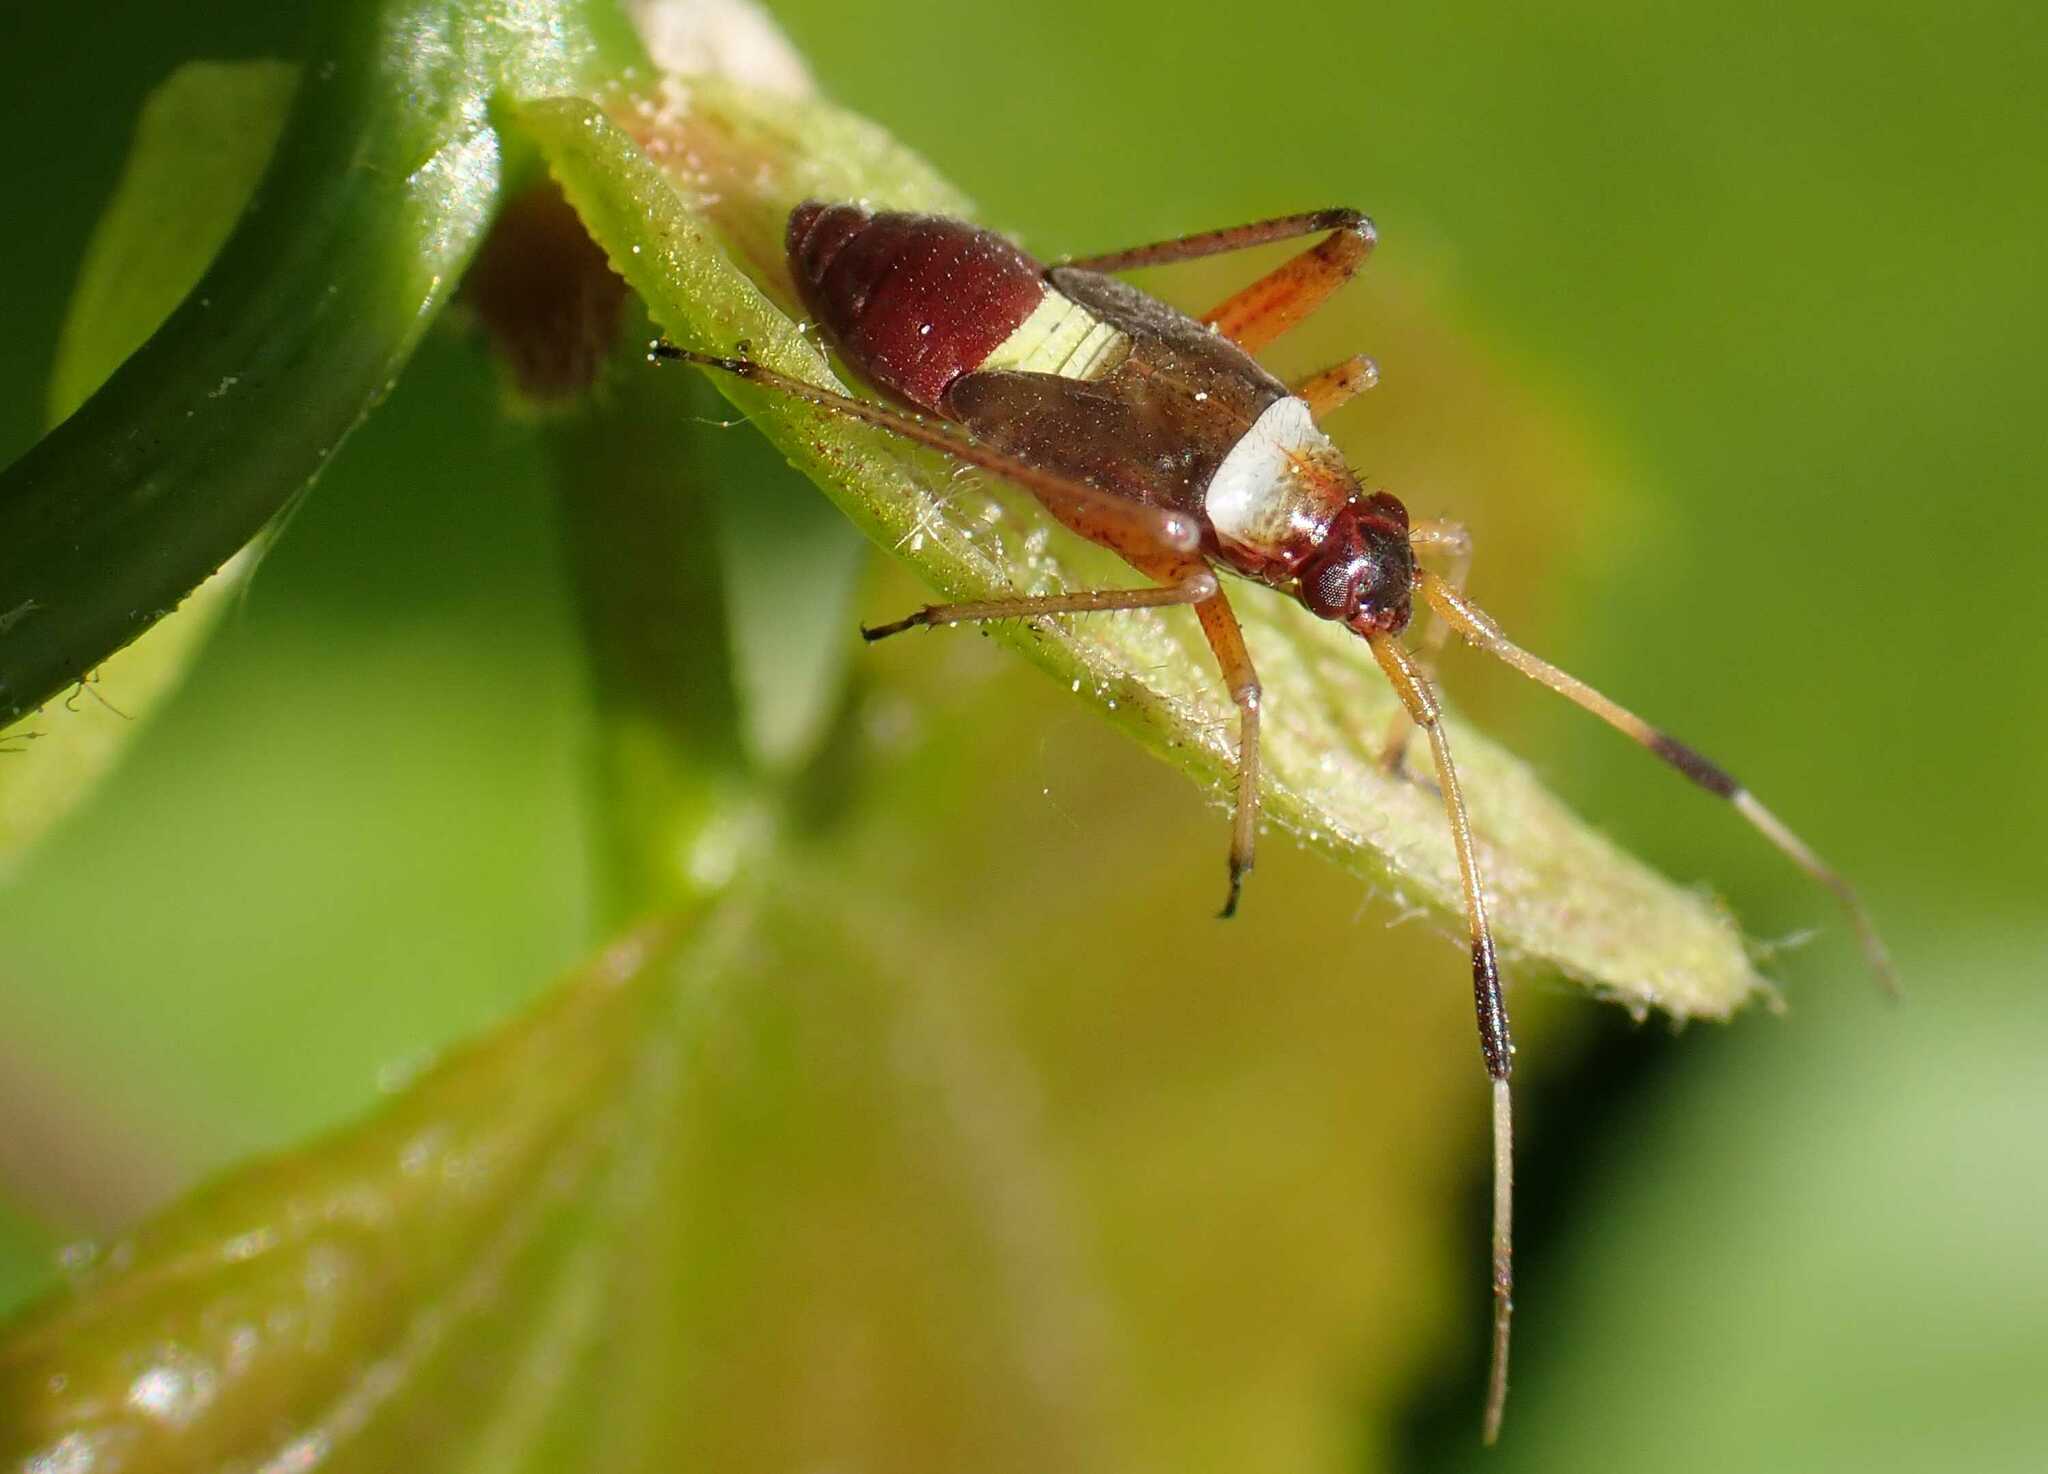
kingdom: Animalia
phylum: Arthropoda
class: Insecta
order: Hemiptera
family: Miridae
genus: Closterotomus
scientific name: Closterotomus biclavatus
